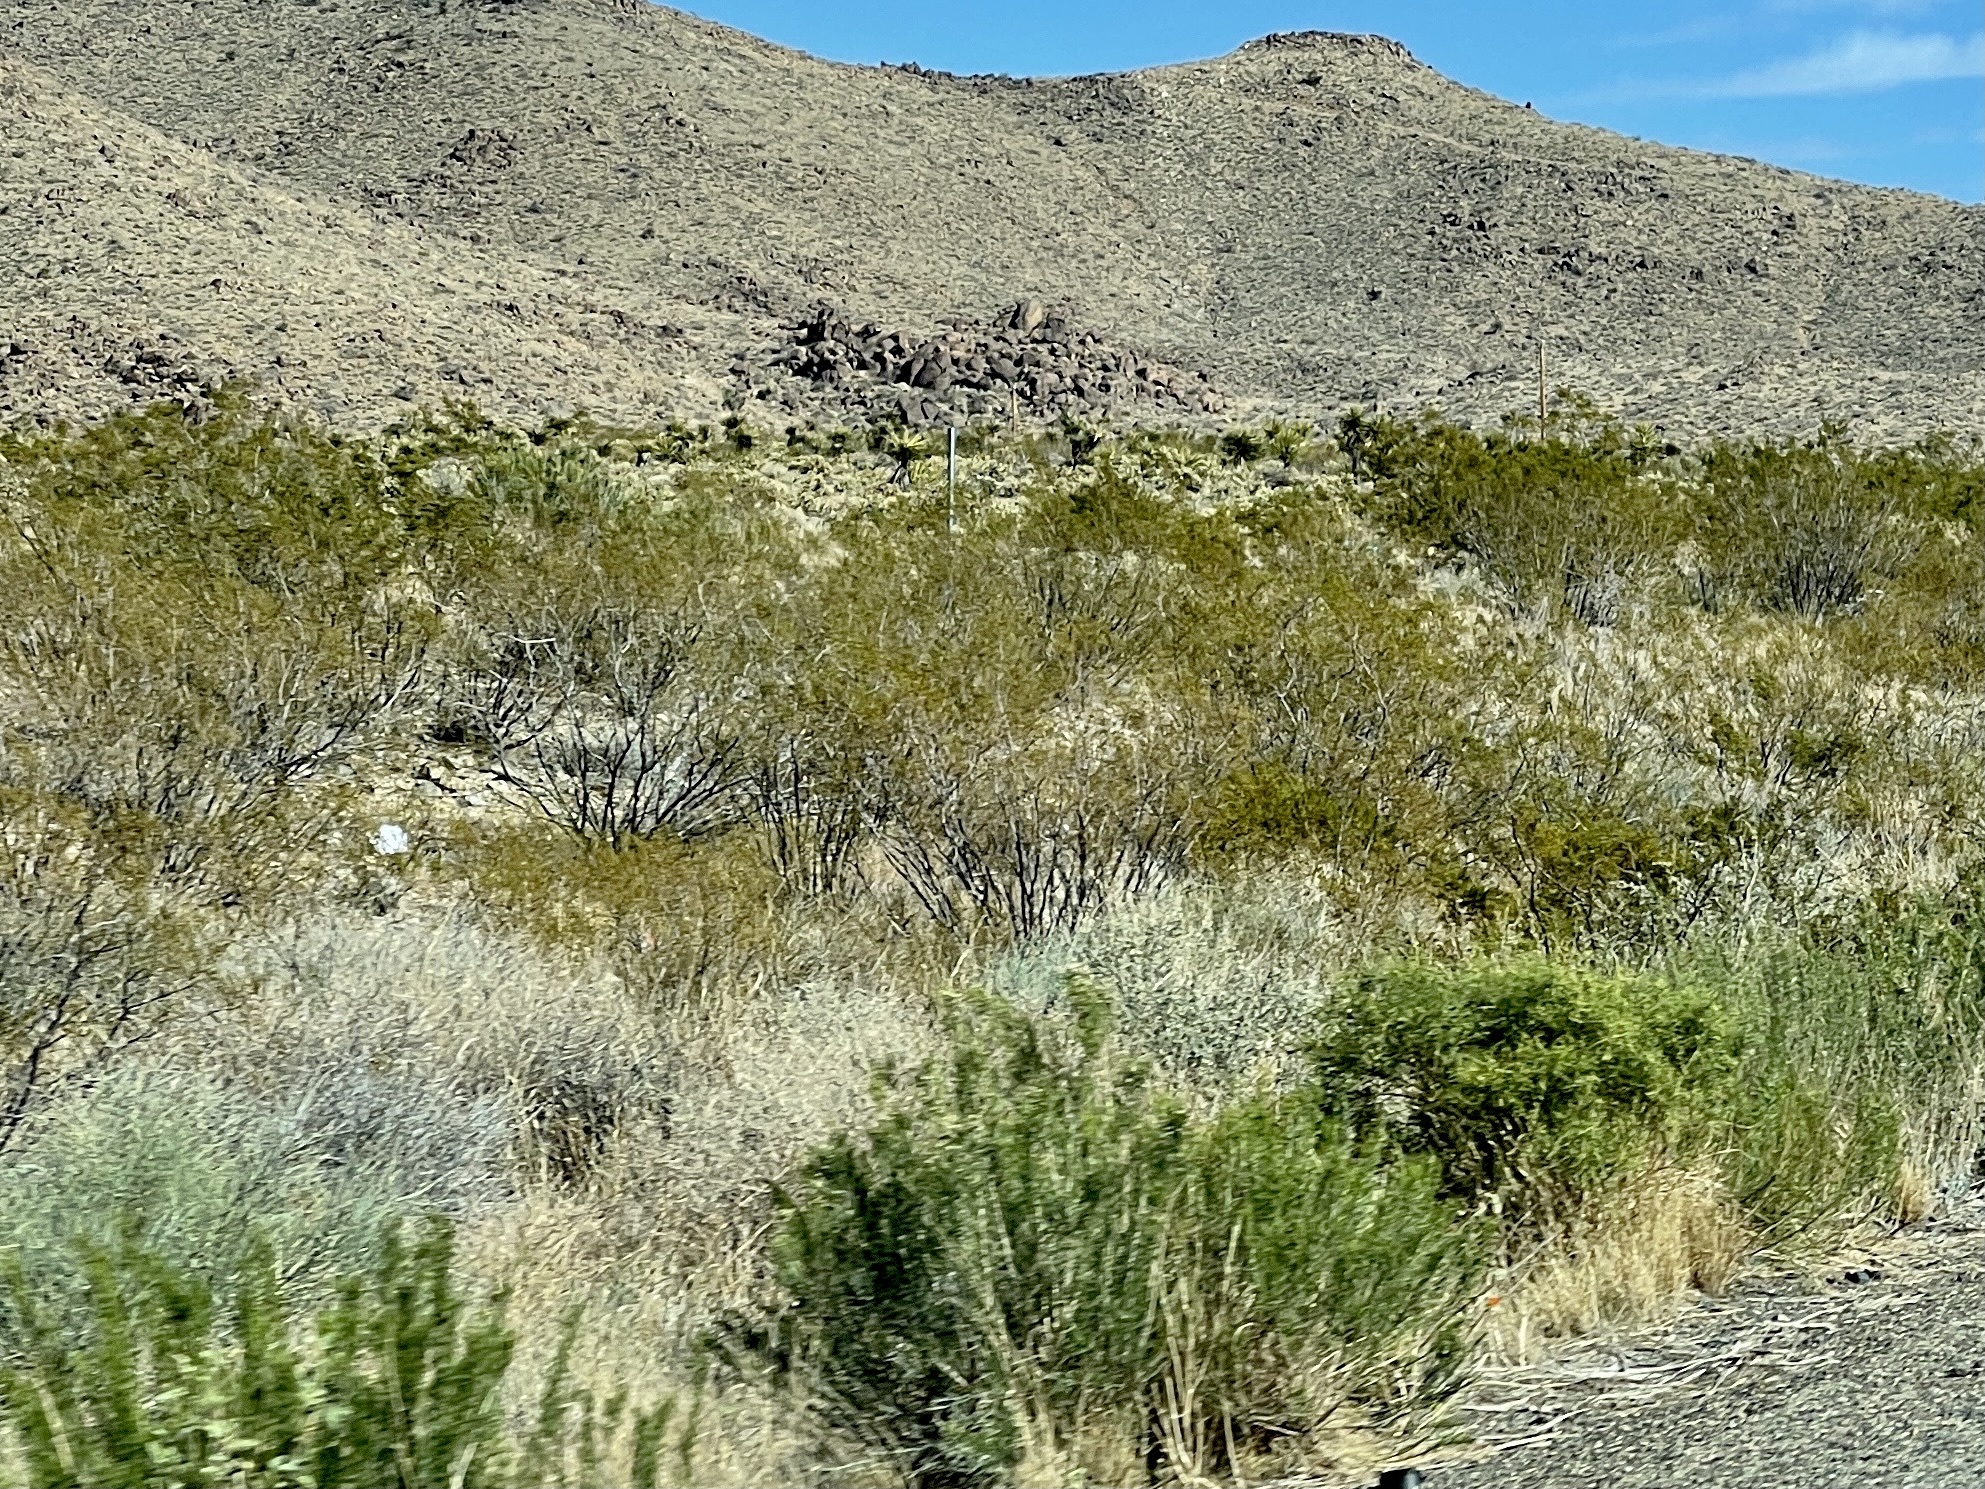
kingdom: Plantae
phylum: Tracheophyta
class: Magnoliopsida
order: Zygophyllales
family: Zygophyllaceae
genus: Larrea
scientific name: Larrea tridentata
